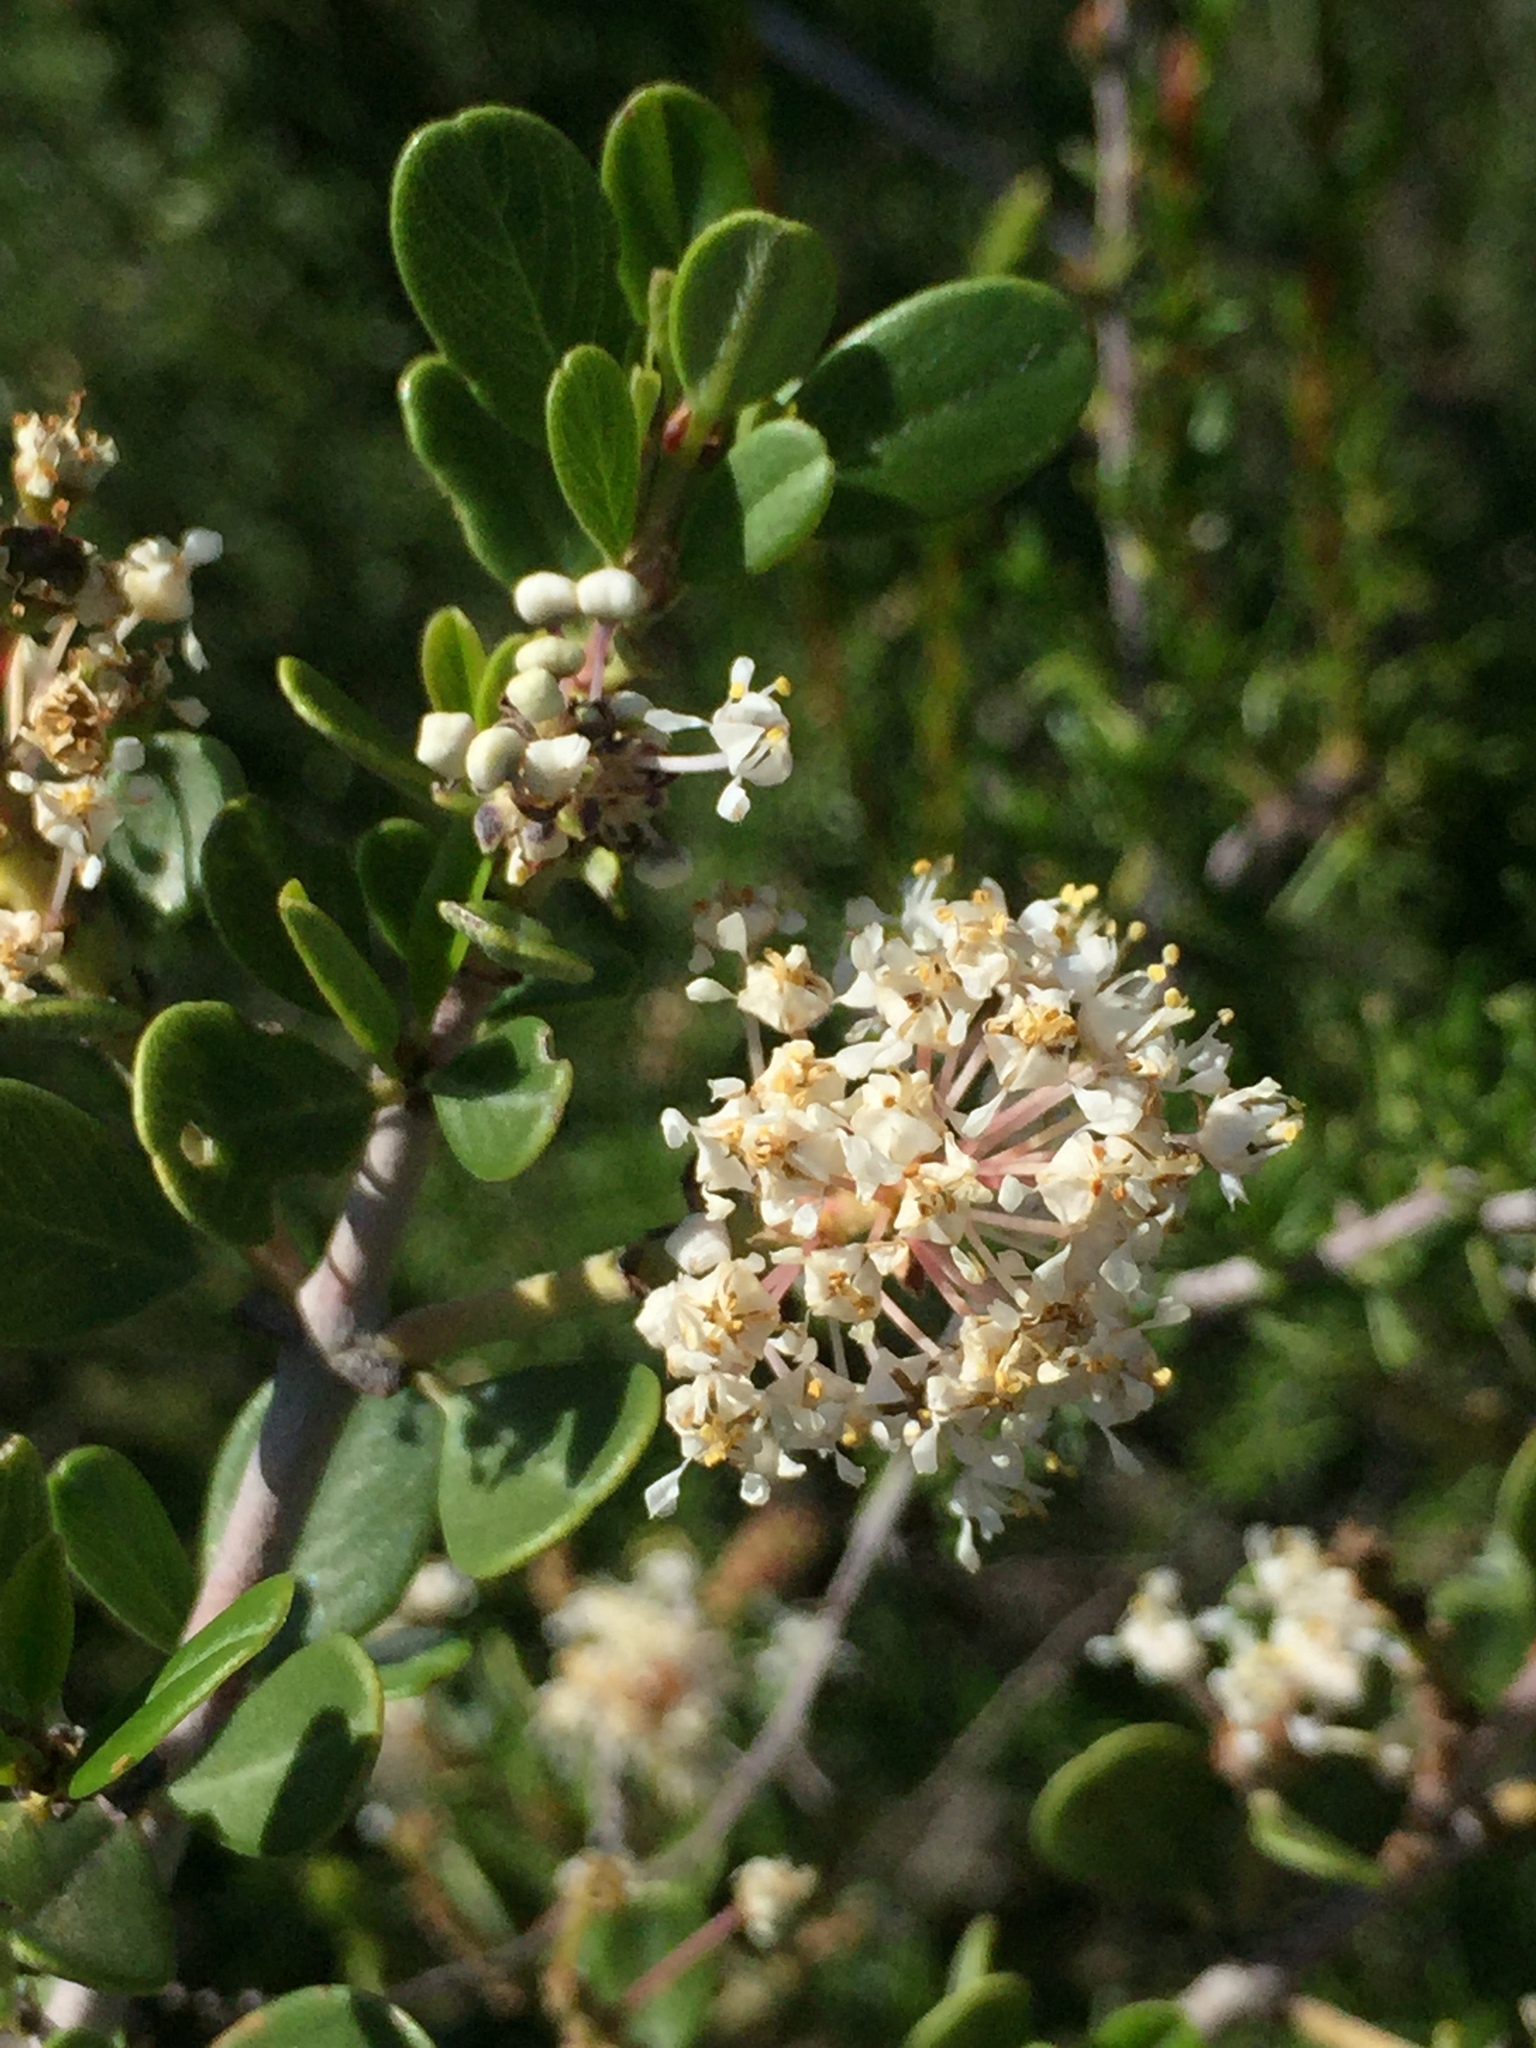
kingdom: Plantae
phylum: Tracheophyta
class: Magnoliopsida
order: Rosales
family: Rhamnaceae
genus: Ceanothus
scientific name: Ceanothus cuneatus
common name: Cuneate ceanothus
